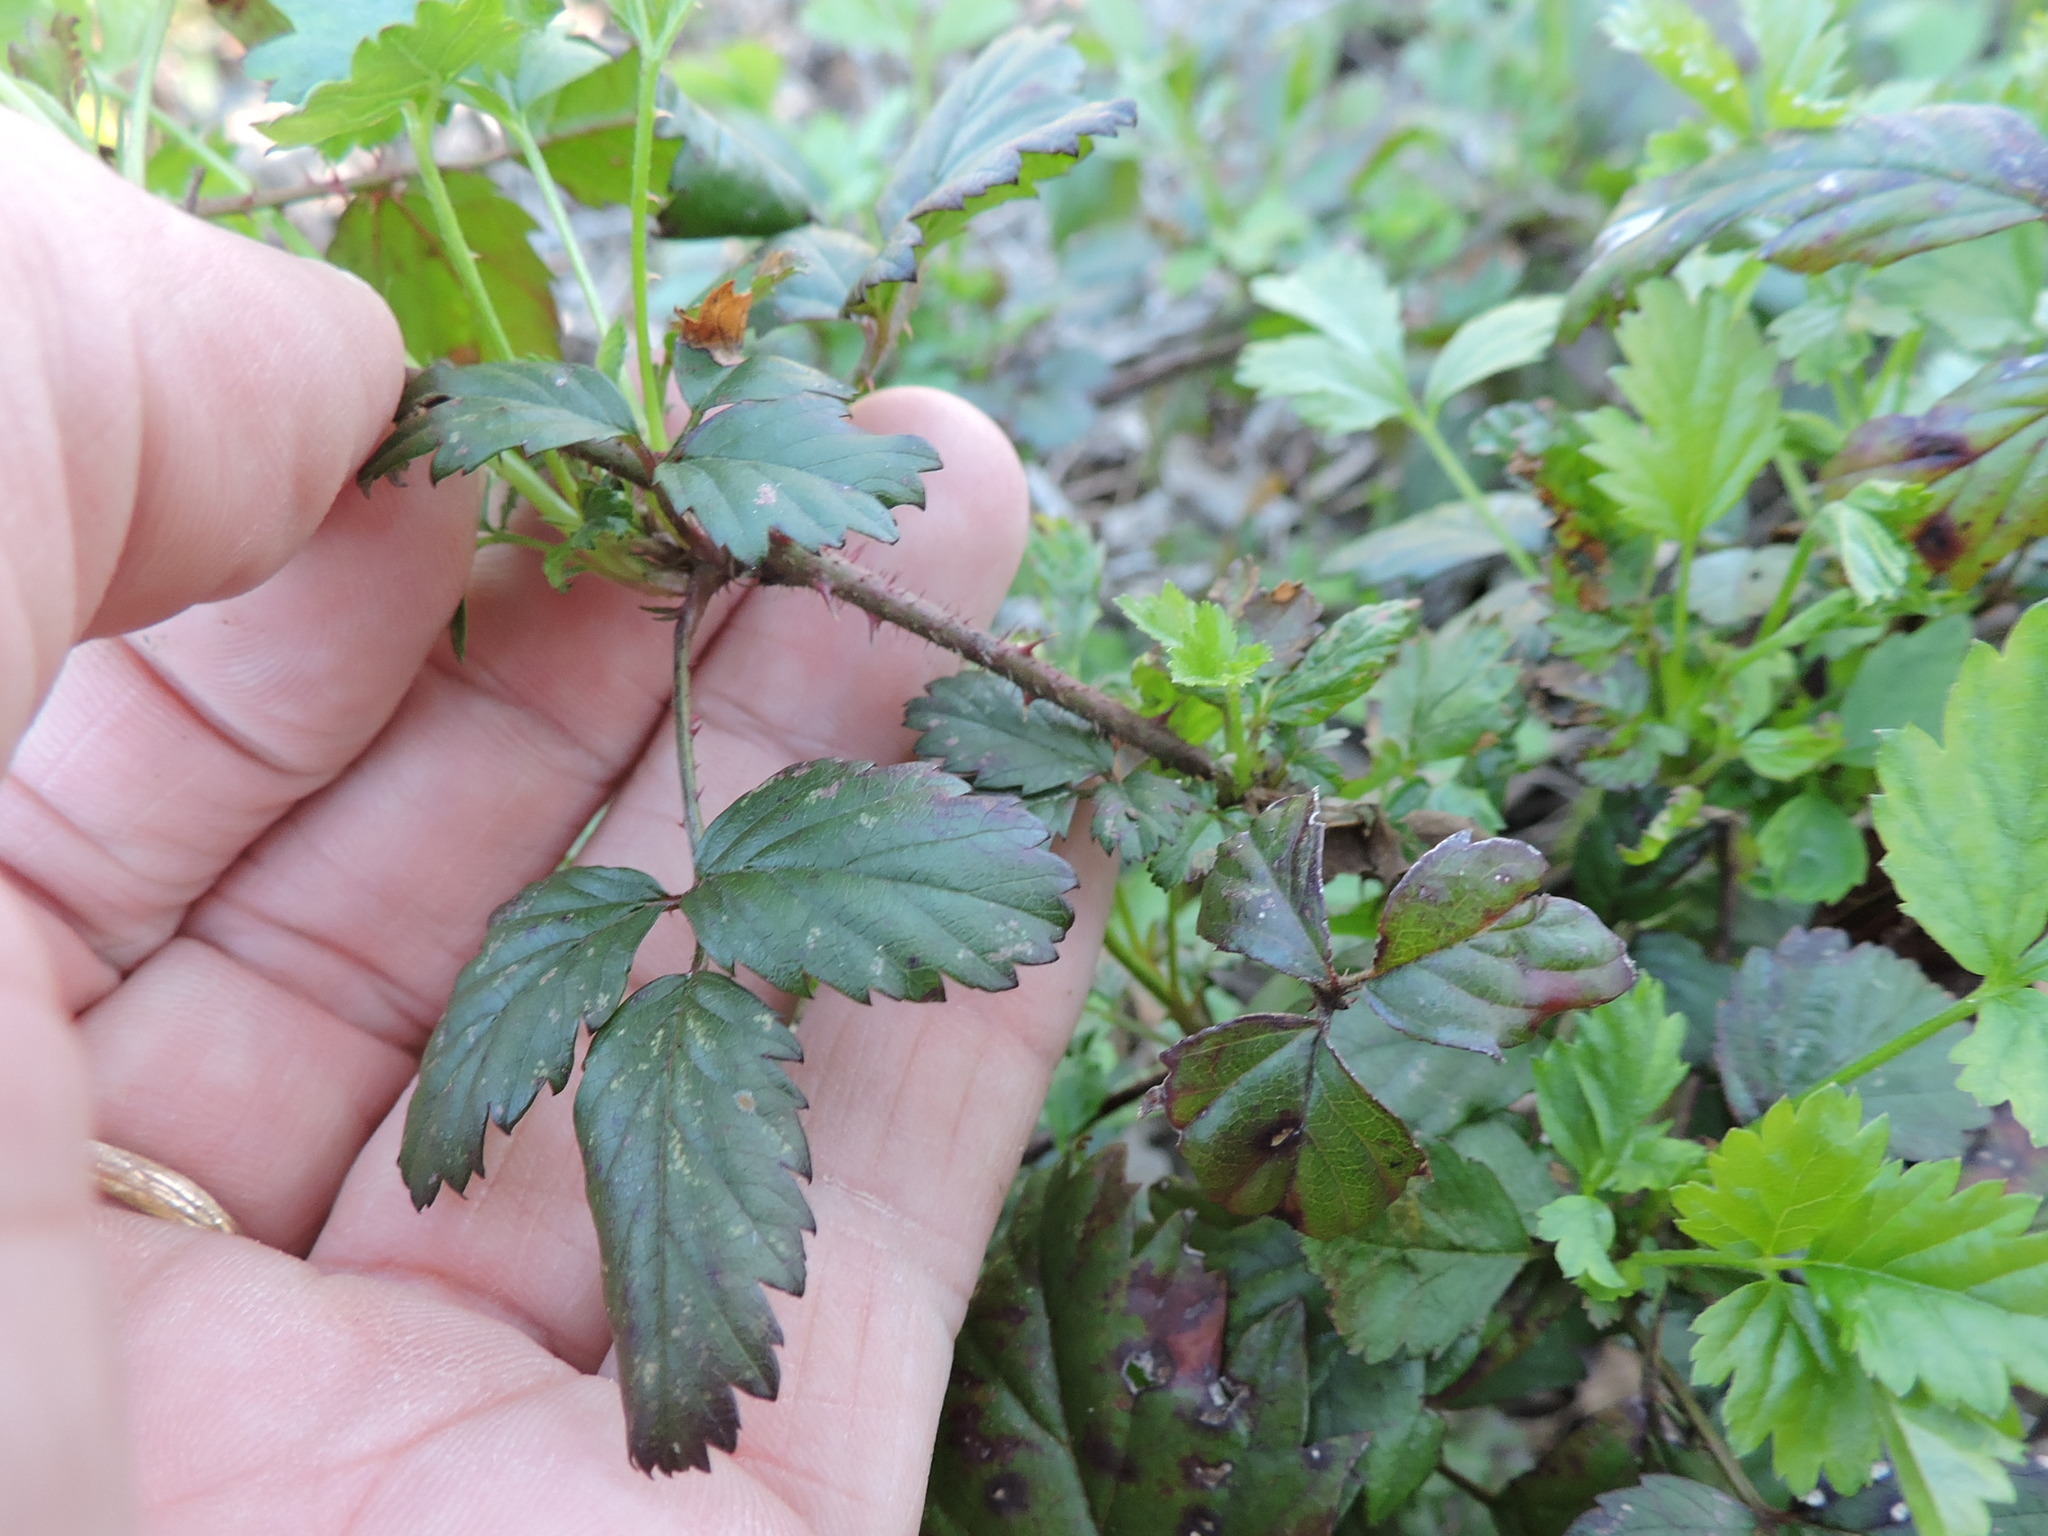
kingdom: Plantae
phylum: Tracheophyta
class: Magnoliopsida
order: Rosales
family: Rosaceae
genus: Rubus
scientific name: Rubus trivialis
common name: Southern dewberry
